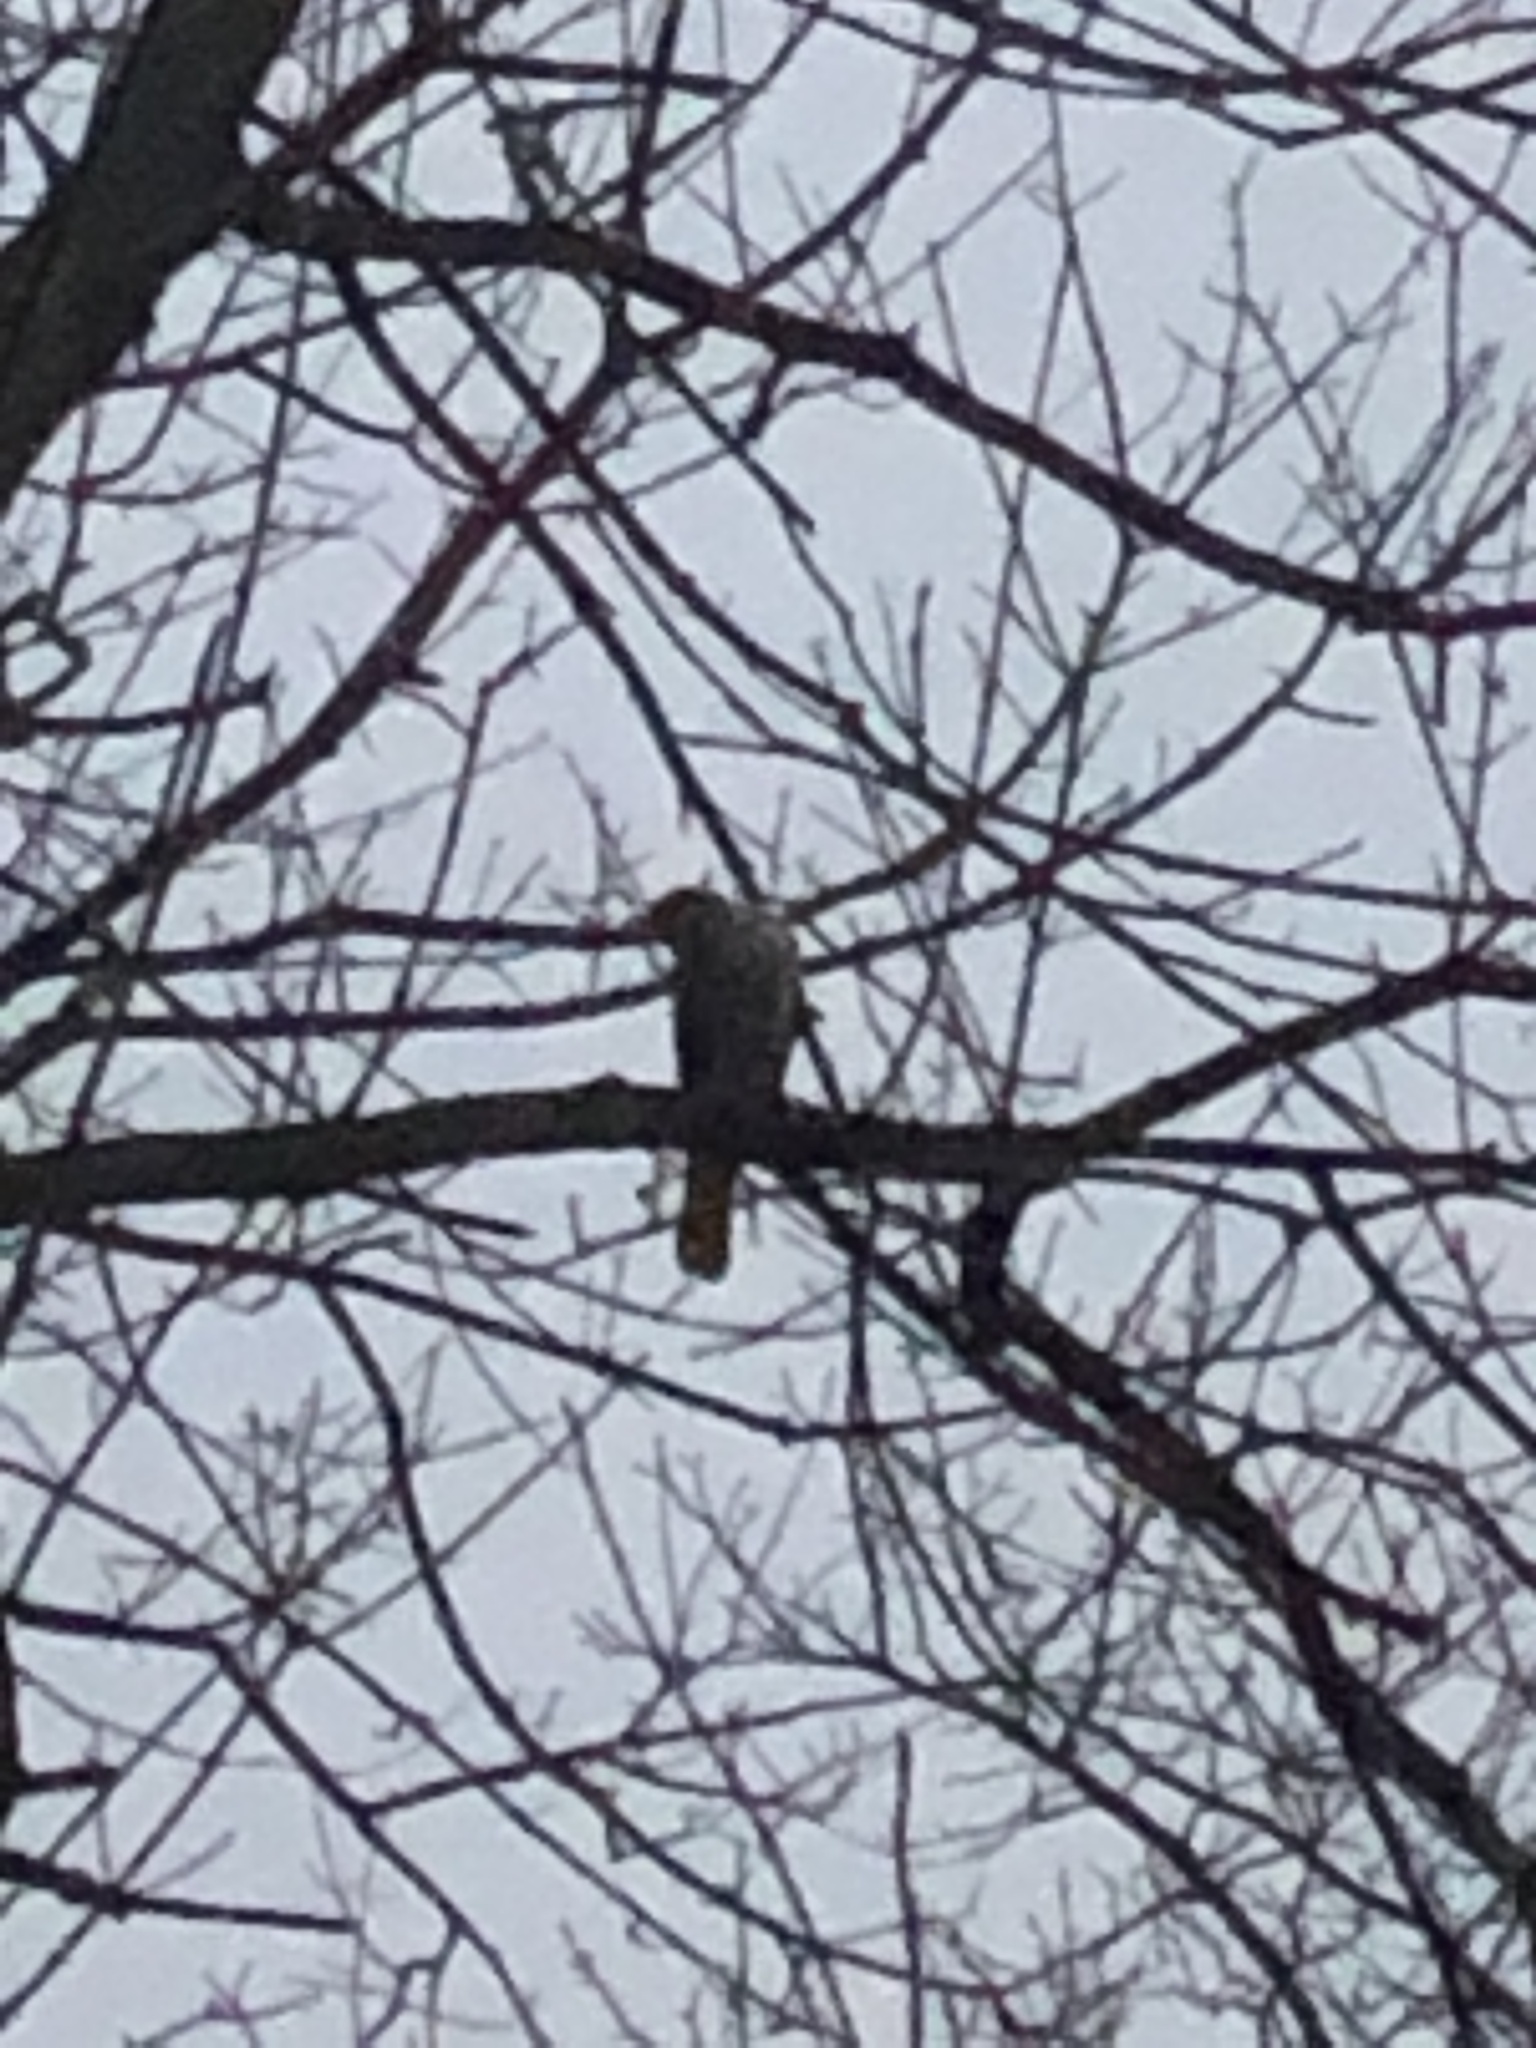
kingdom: Animalia
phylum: Chordata
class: Aves
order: Accipitriformes
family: Accipitridae
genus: Accipiter
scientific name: Accipiter cooperii
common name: Cooper's hawk
